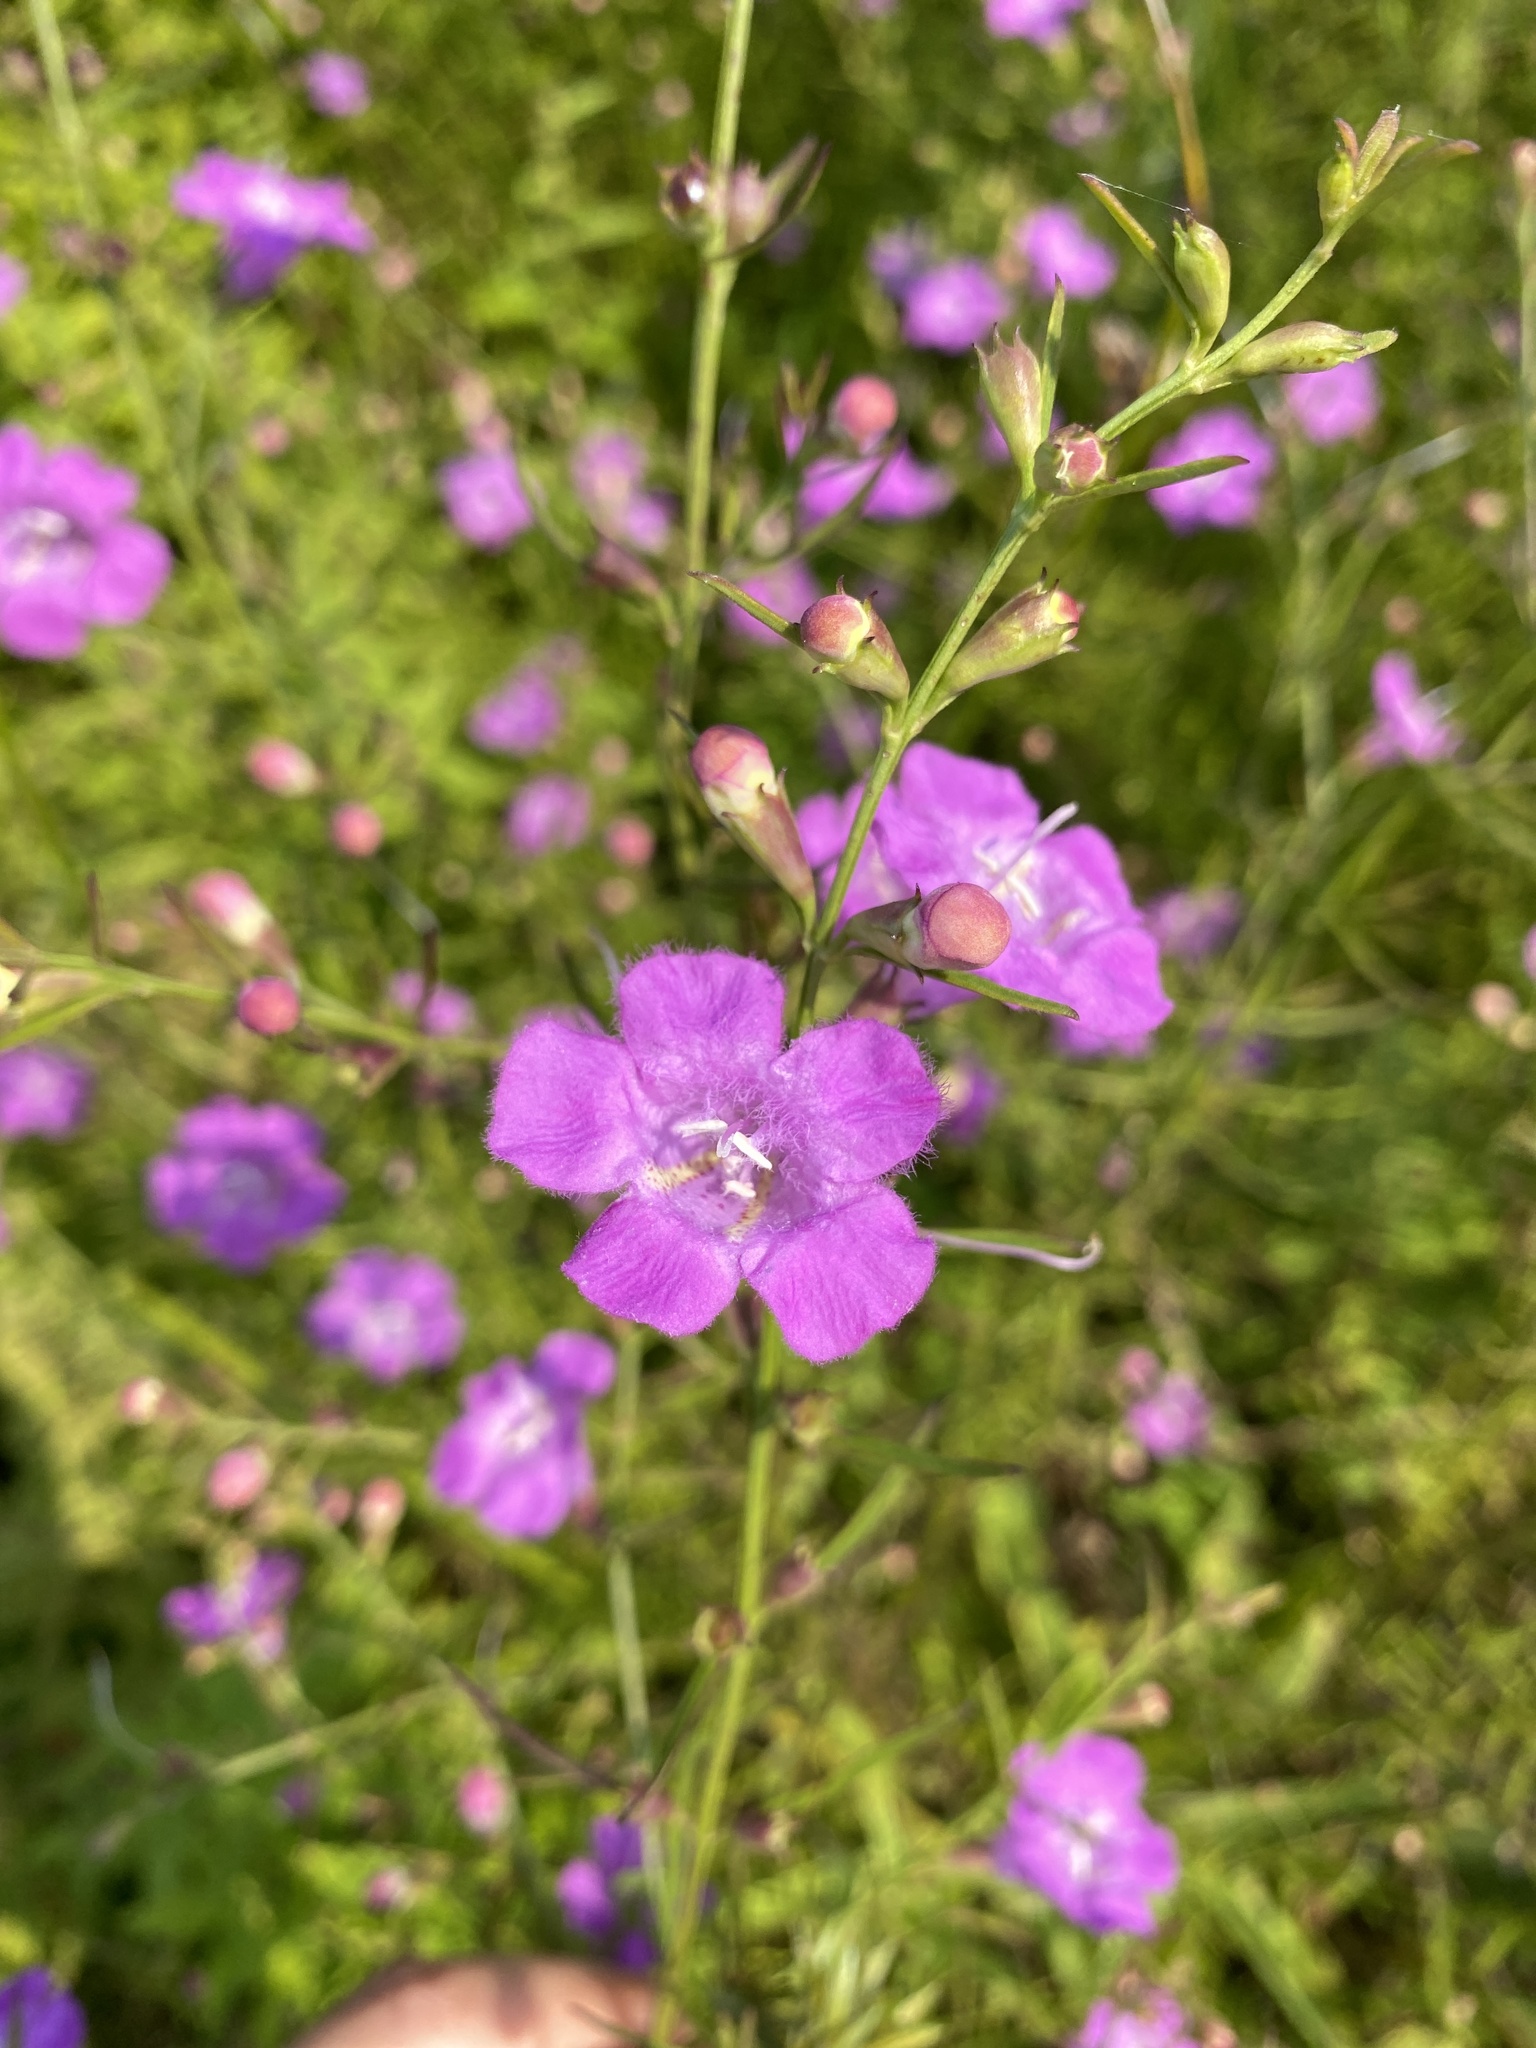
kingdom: Plantae
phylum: Tracheophyta
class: Magnoliopsida
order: Lamiales
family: Orobanchaceae
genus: Agalinis
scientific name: Agalinis purpurea
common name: Purple false foxglove
